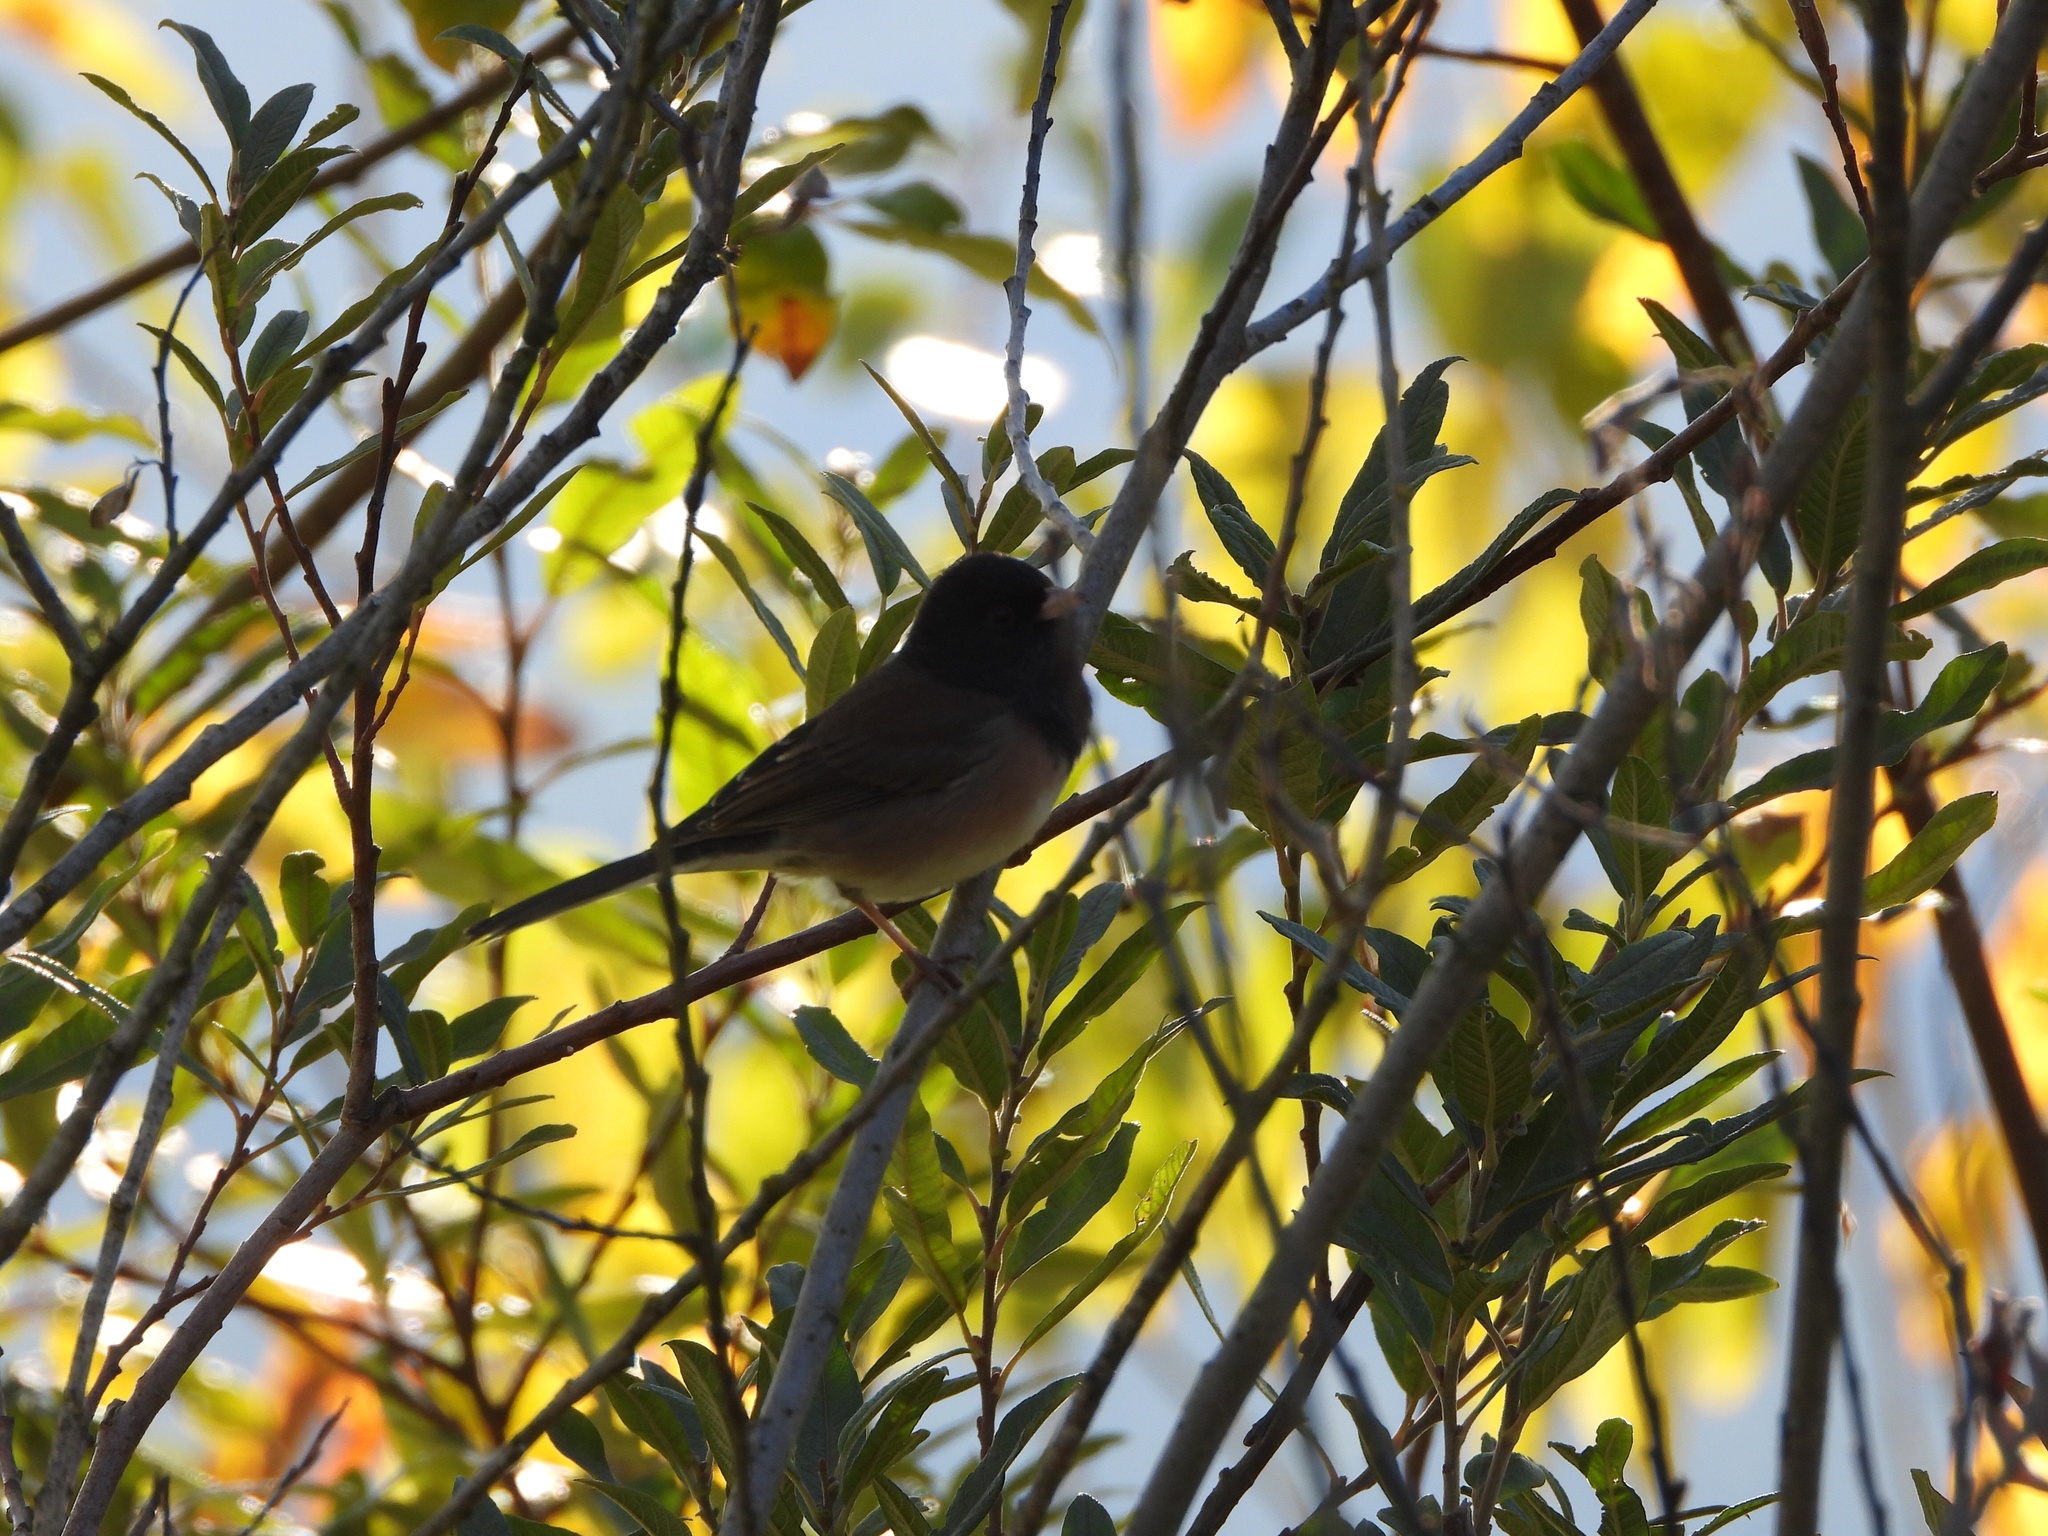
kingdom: Animalia
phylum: Chordata
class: Aves
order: Passeriformes
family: Passerellidae
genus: Junco
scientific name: Junco hyemalis
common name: Dark-eyed junco
